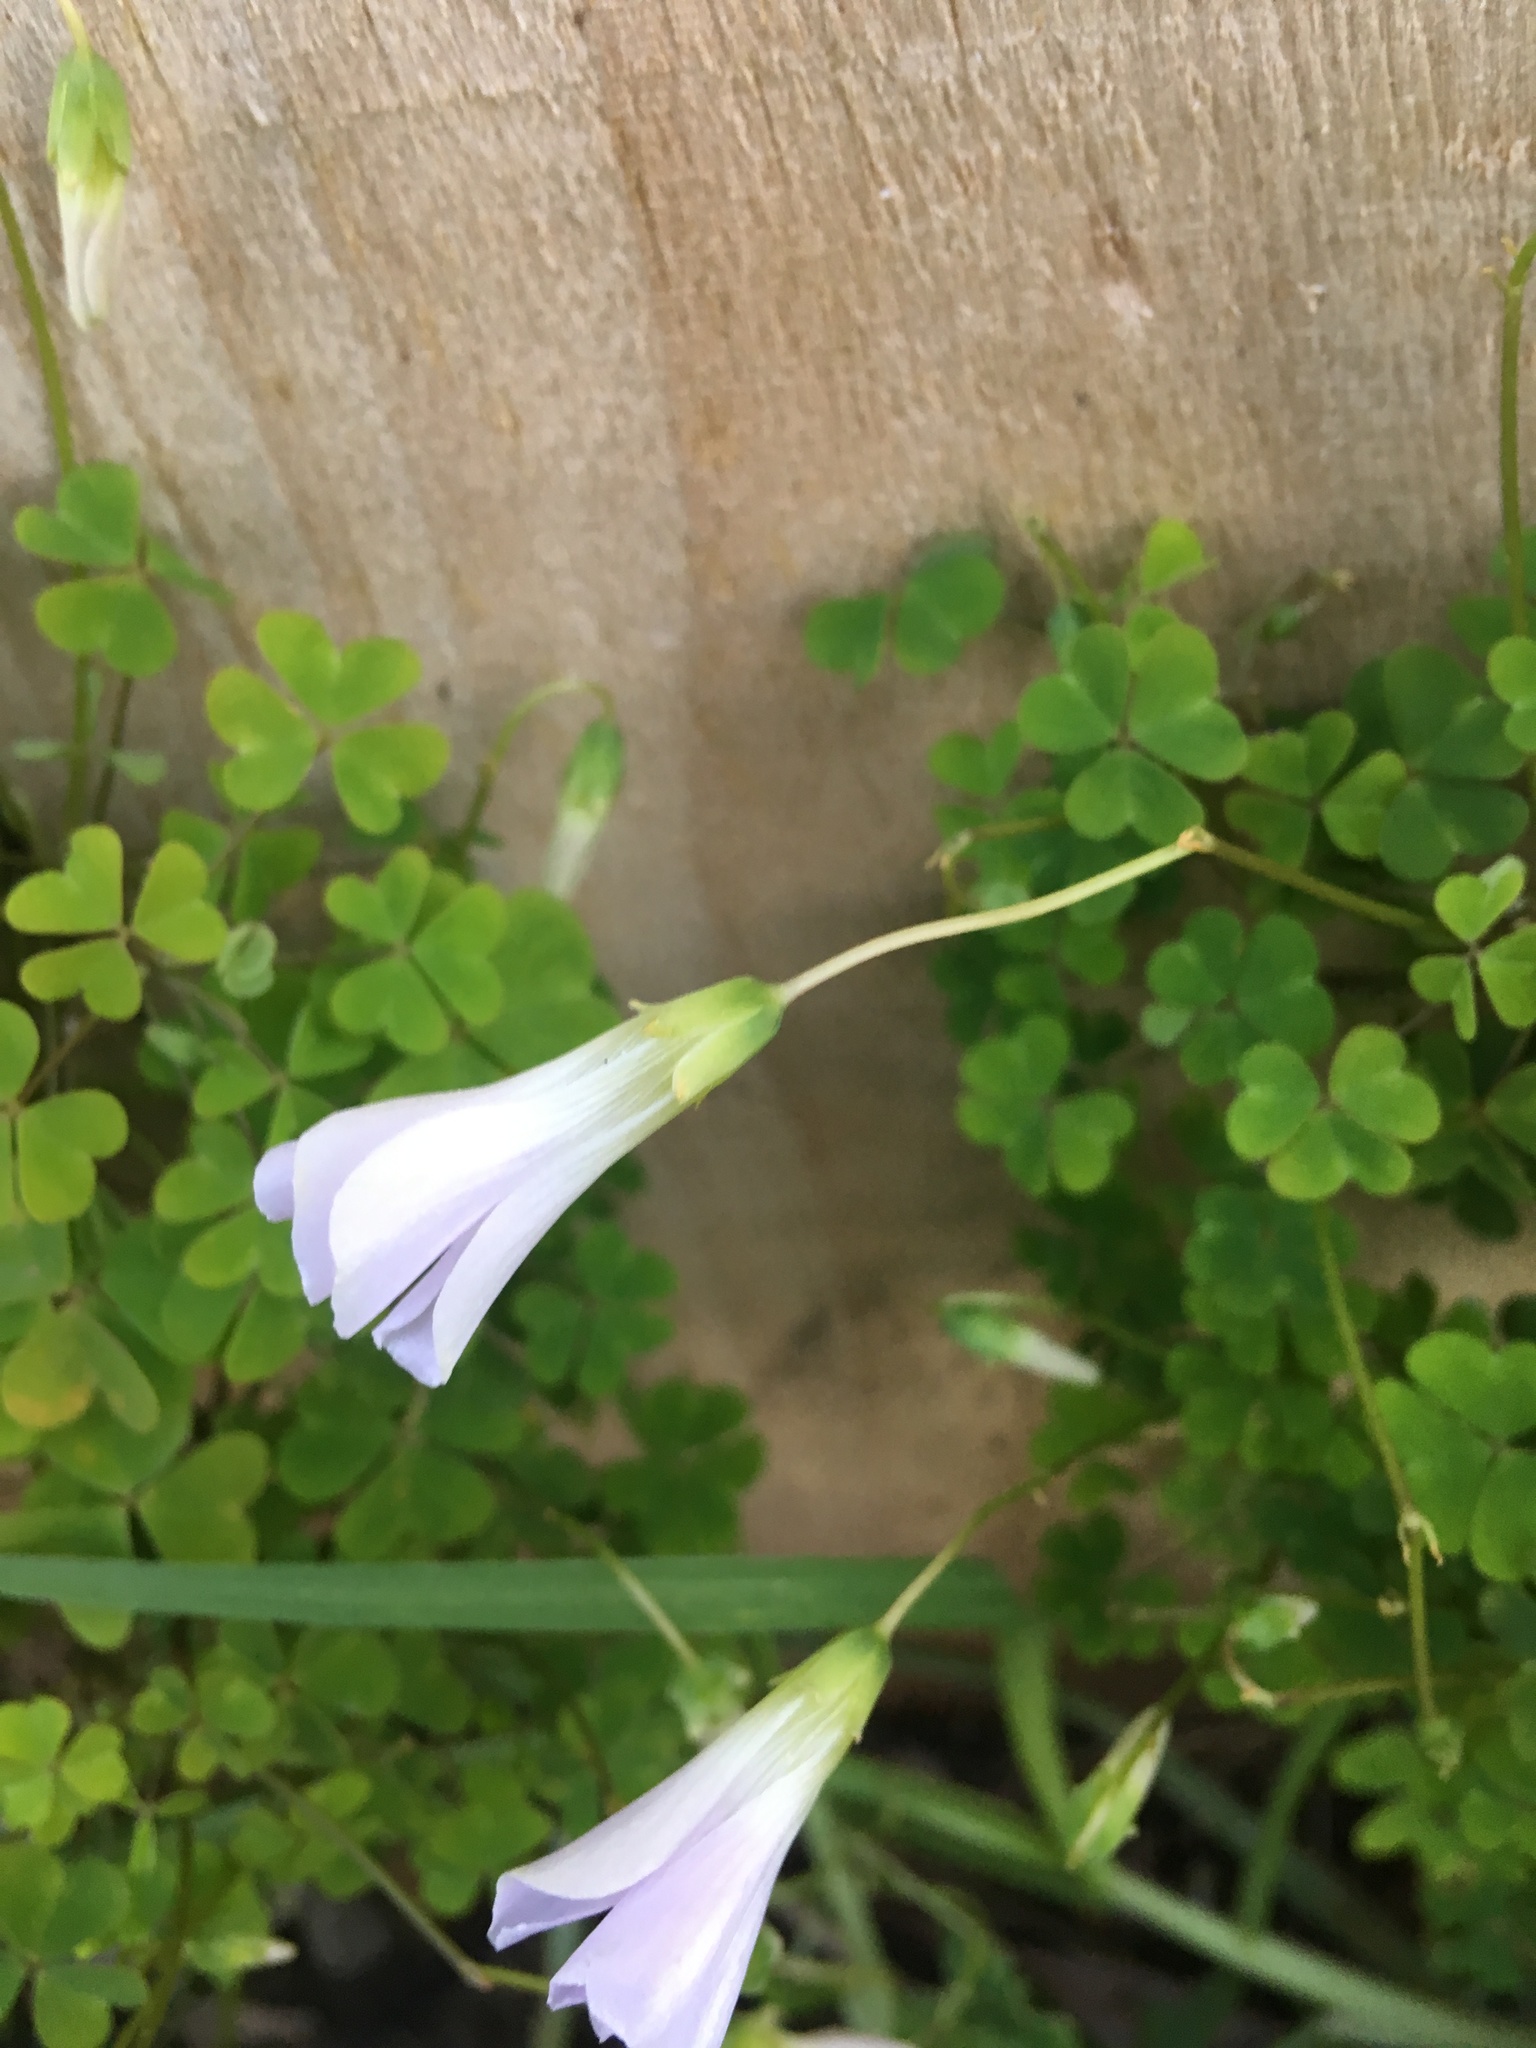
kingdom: Plantae
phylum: Tracheophyta
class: Magnoliopsida
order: Oxalidales
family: Oxalidaceae
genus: Oxalis
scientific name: Oxalis incarnata
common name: Pale pink-sorrel
